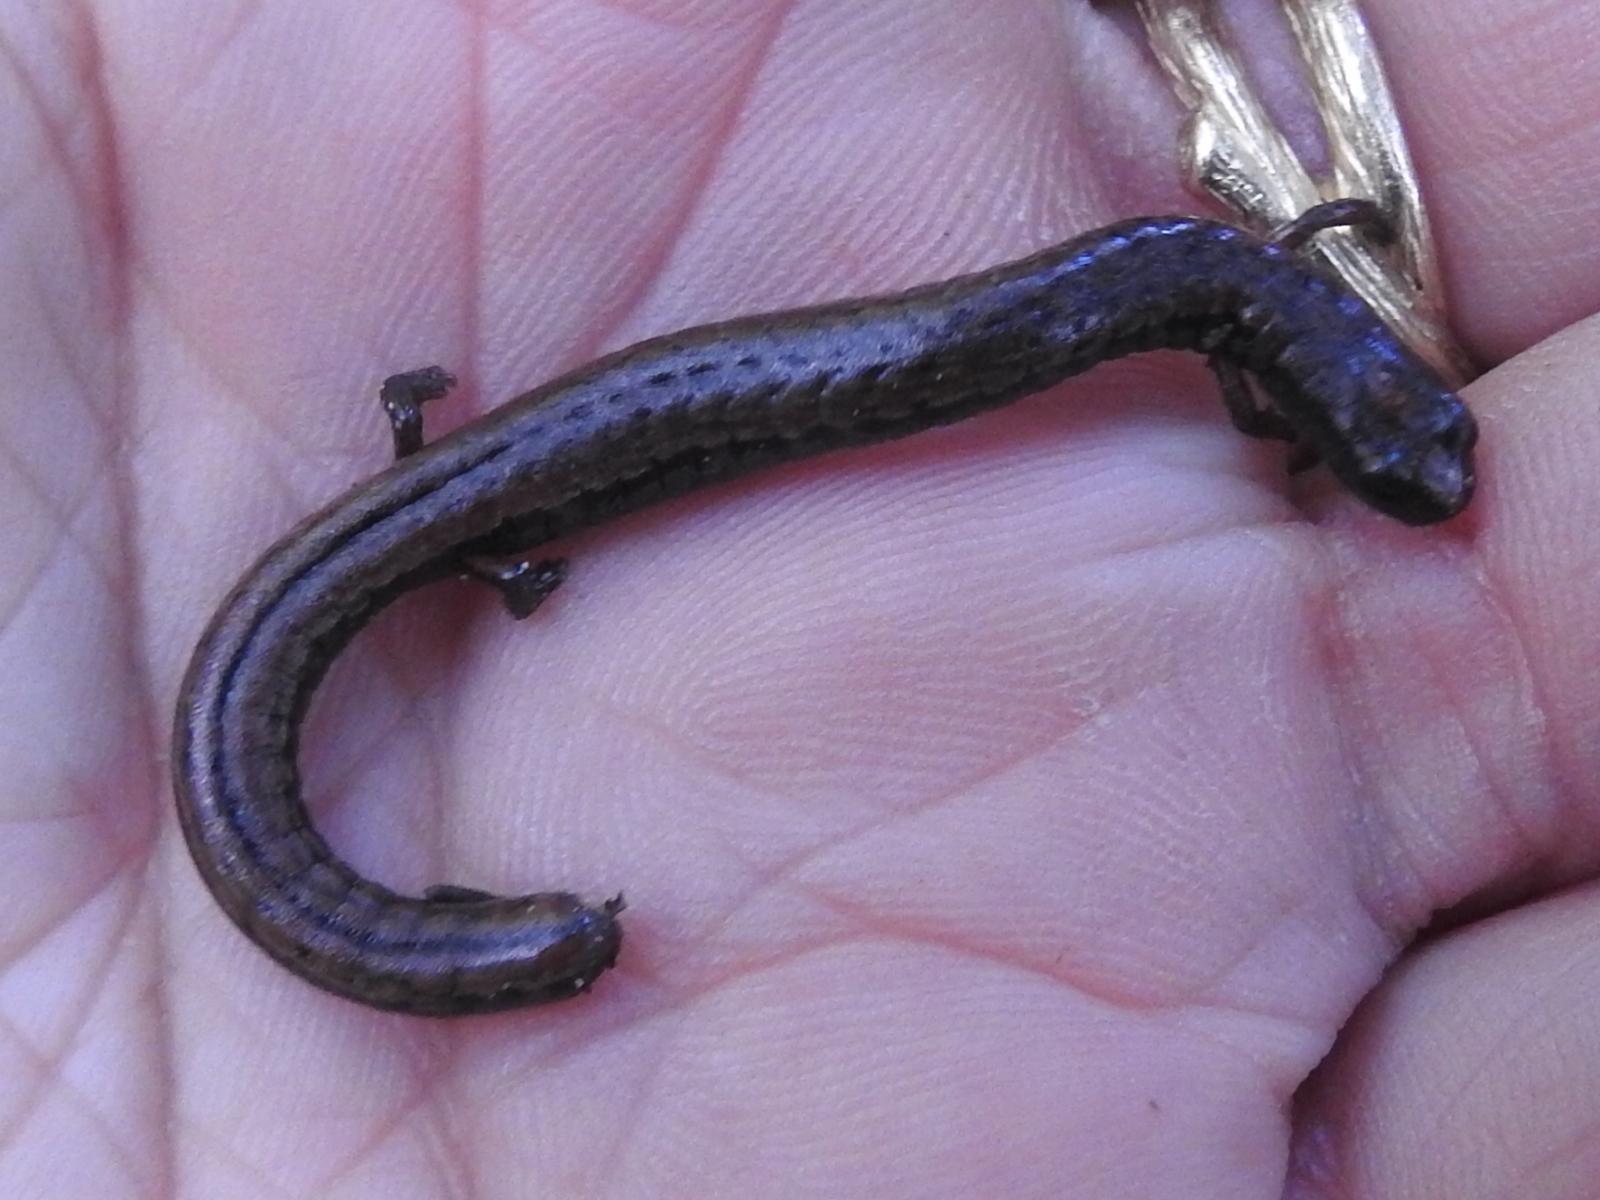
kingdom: Animalia
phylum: Chordata
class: Amphibia
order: Caudata
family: Plethodontidae
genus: Batrachoseps
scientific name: Batrachoseps attenuatus
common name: California slender salamander
